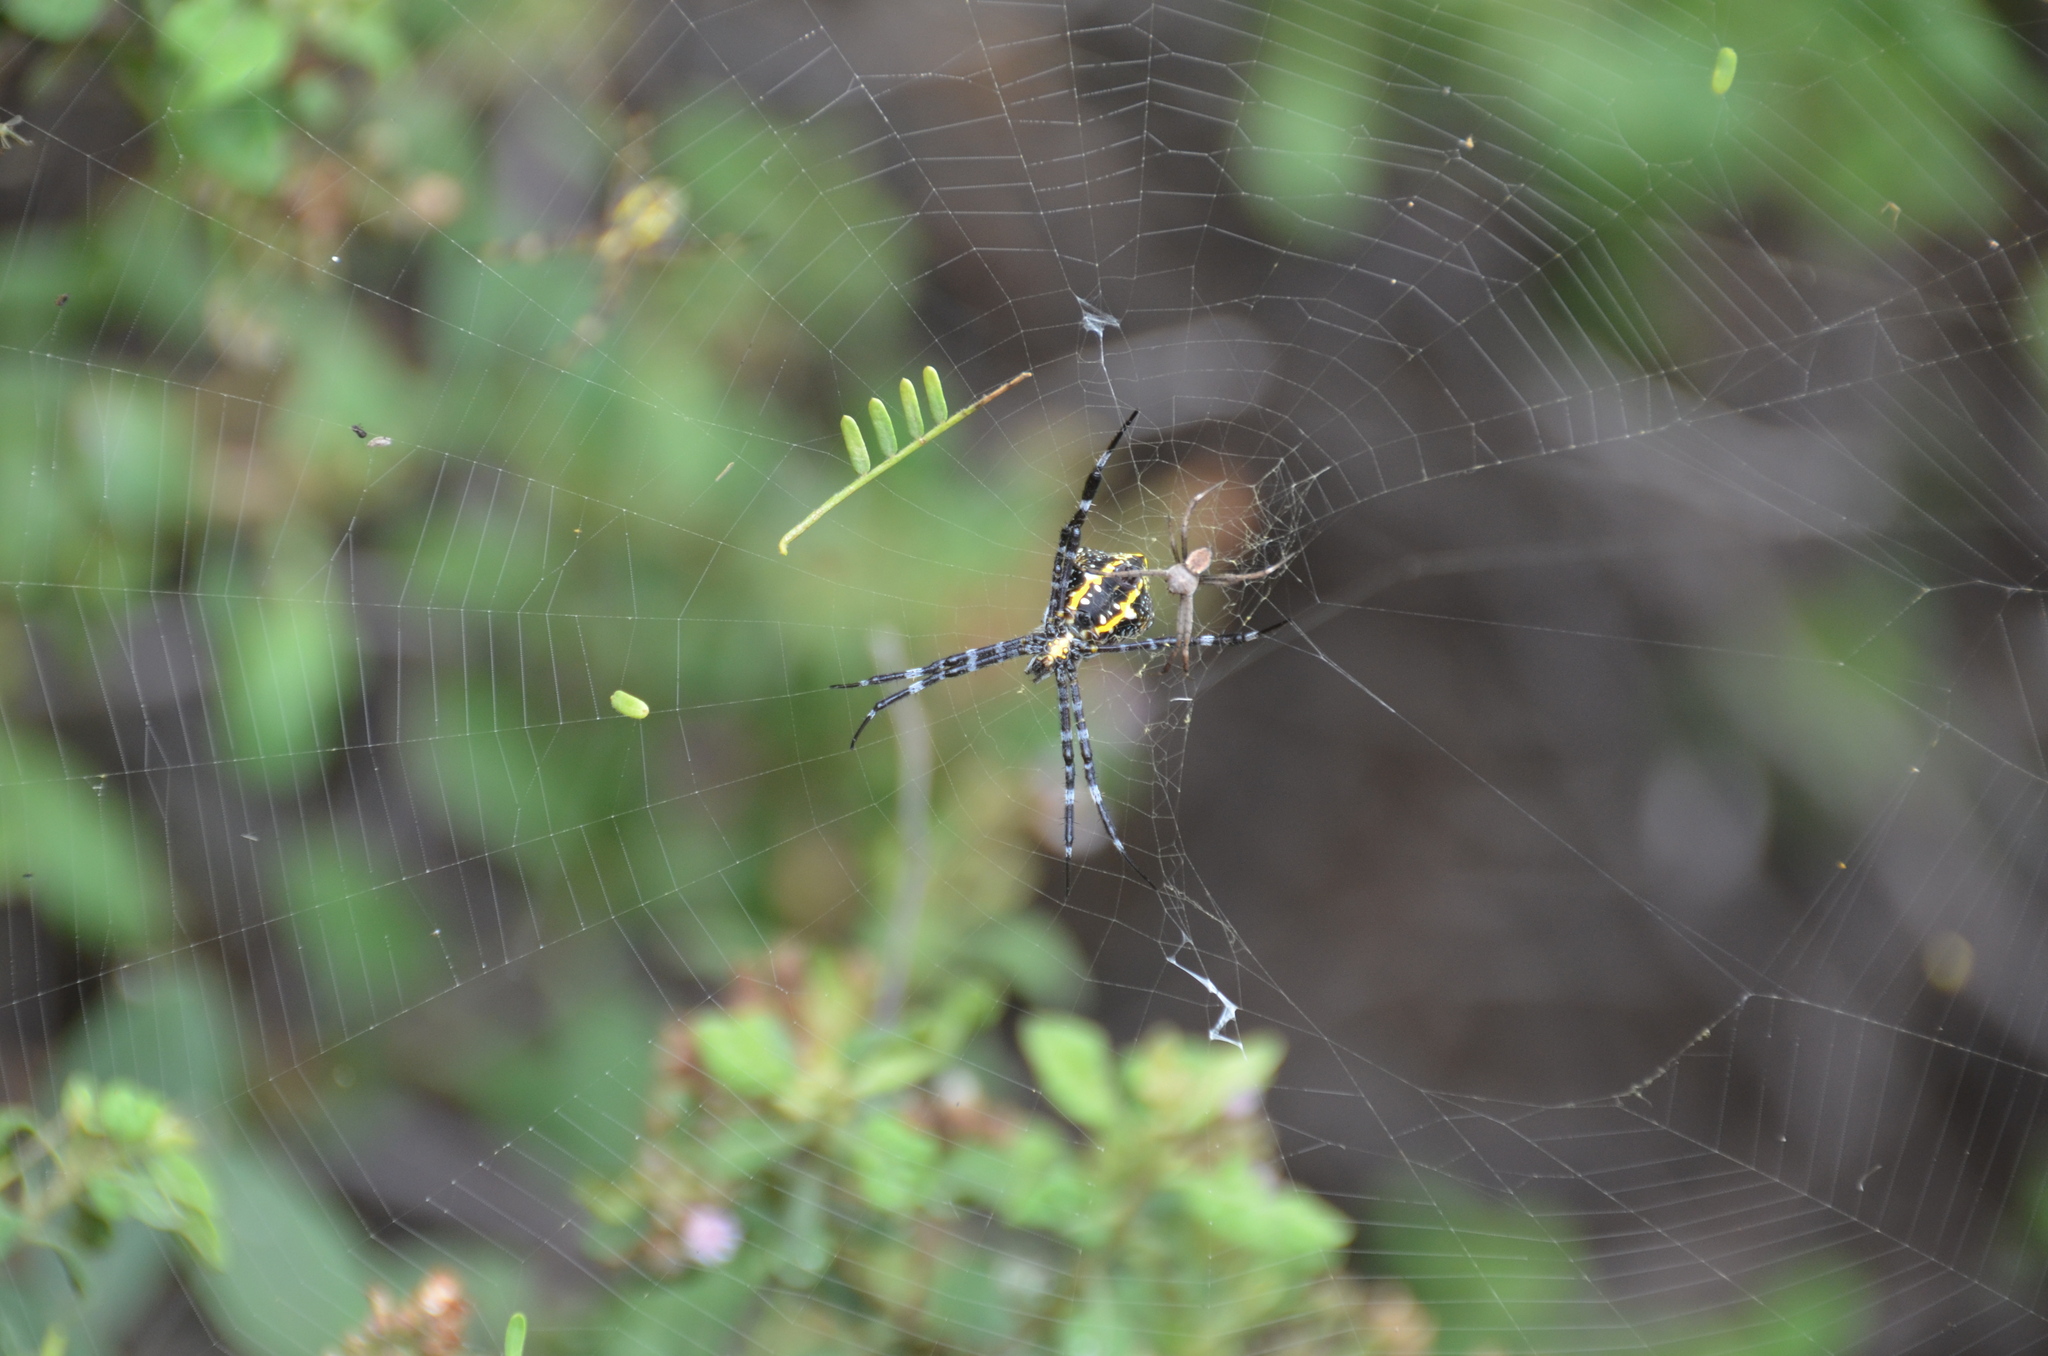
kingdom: Animalia
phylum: Arthropoda
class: Arachnida
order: Araneae
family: Araneidae
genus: Argiope
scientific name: Argiope appensa
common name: Garden spider
